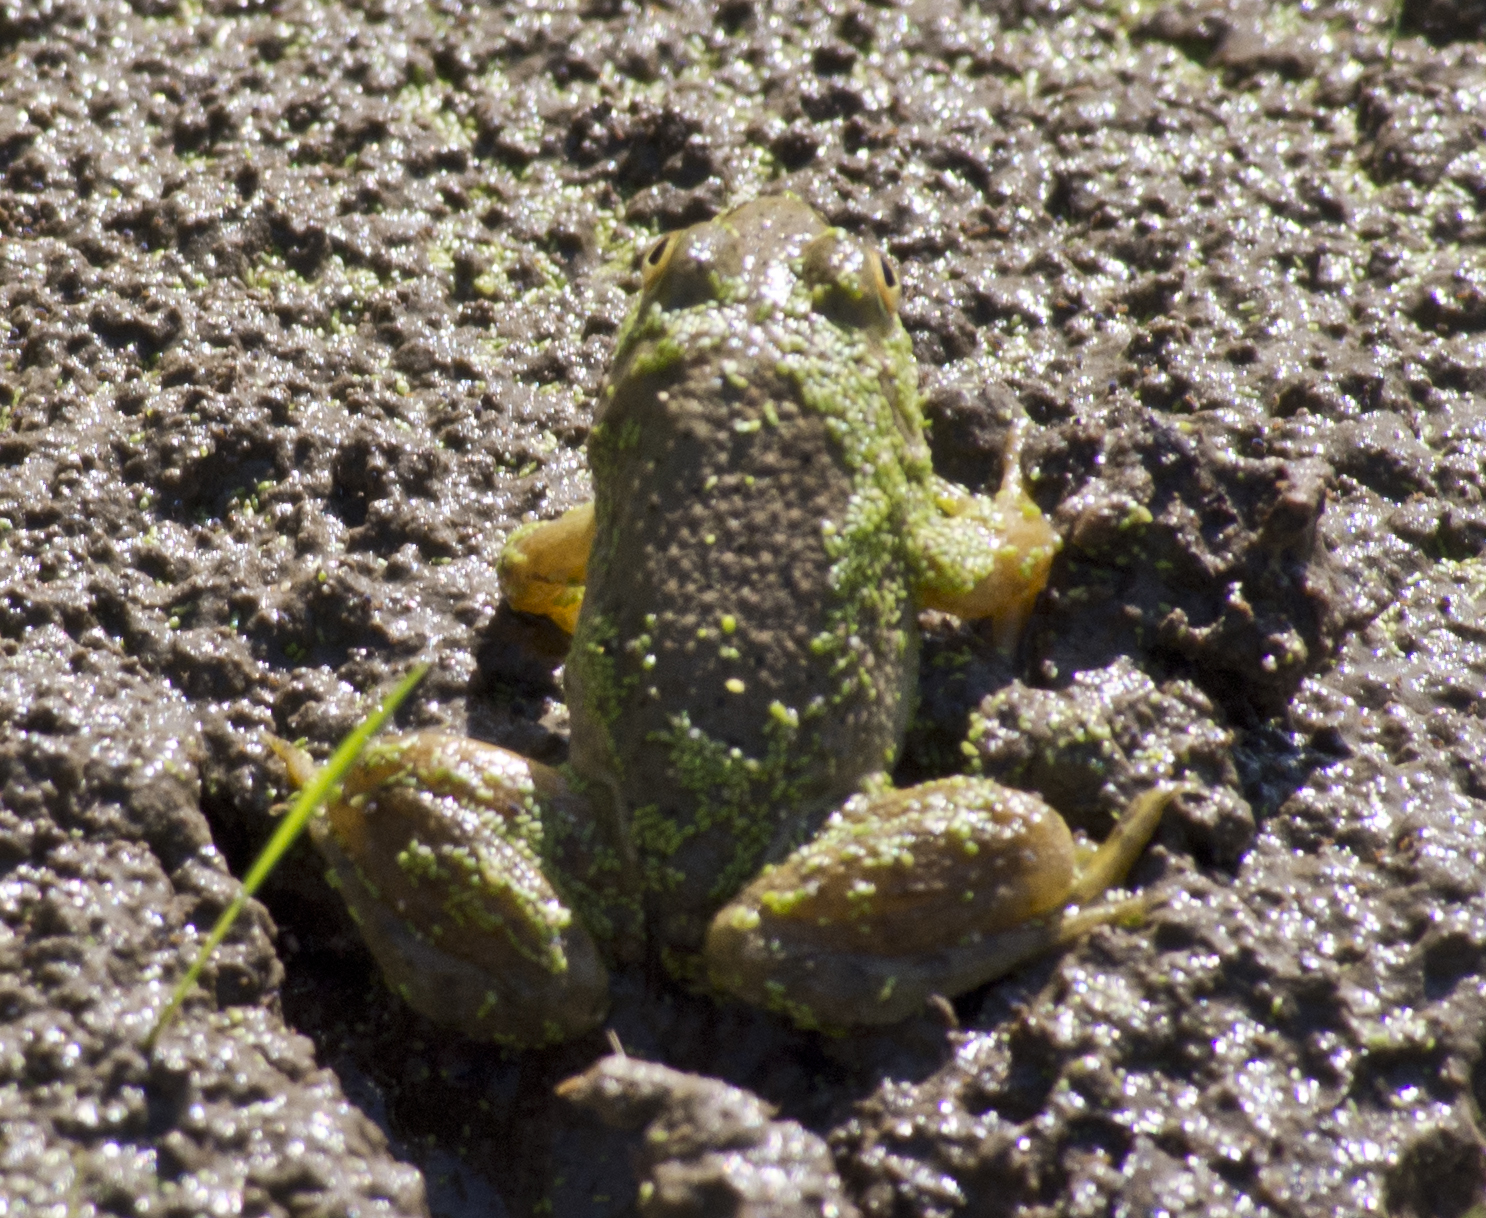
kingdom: Animalia
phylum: Chordata
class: Amphibia
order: Anura
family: Ranidae
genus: Lithobates
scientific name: Lithobates catesbeianus
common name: American bullfrog
